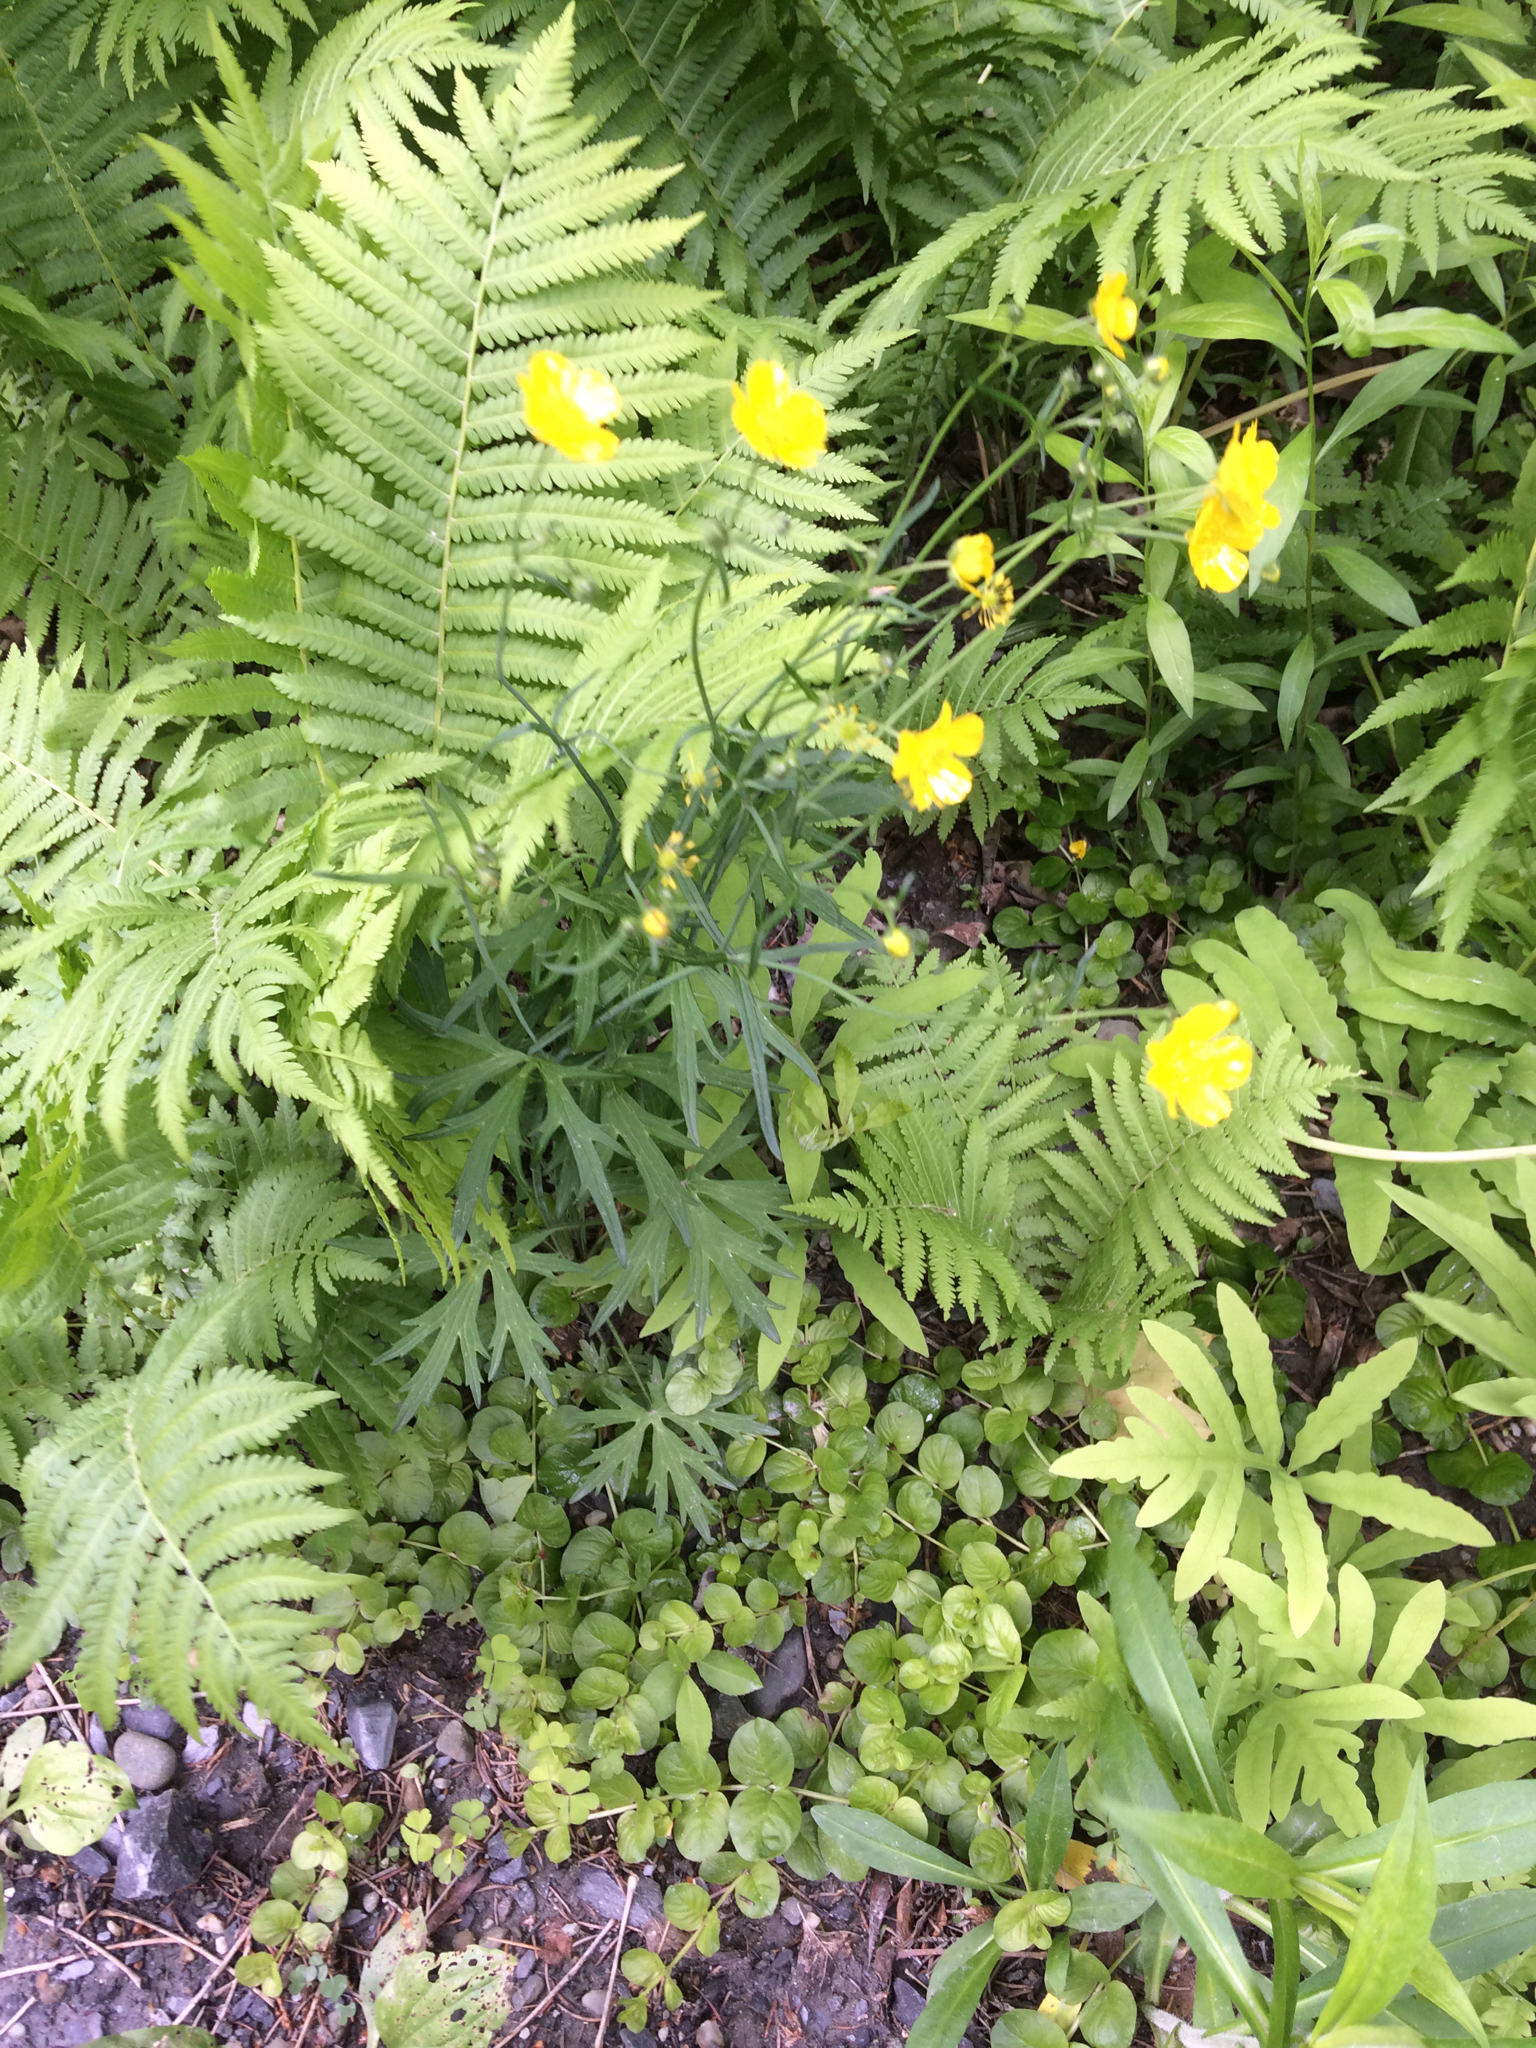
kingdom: Plantae
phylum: Tracheophyta
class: Magnoliopsida
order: Ranunculales
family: Ranunculaceae
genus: Ranunculus
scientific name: Ranunculus acris
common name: Meadow buttercup
